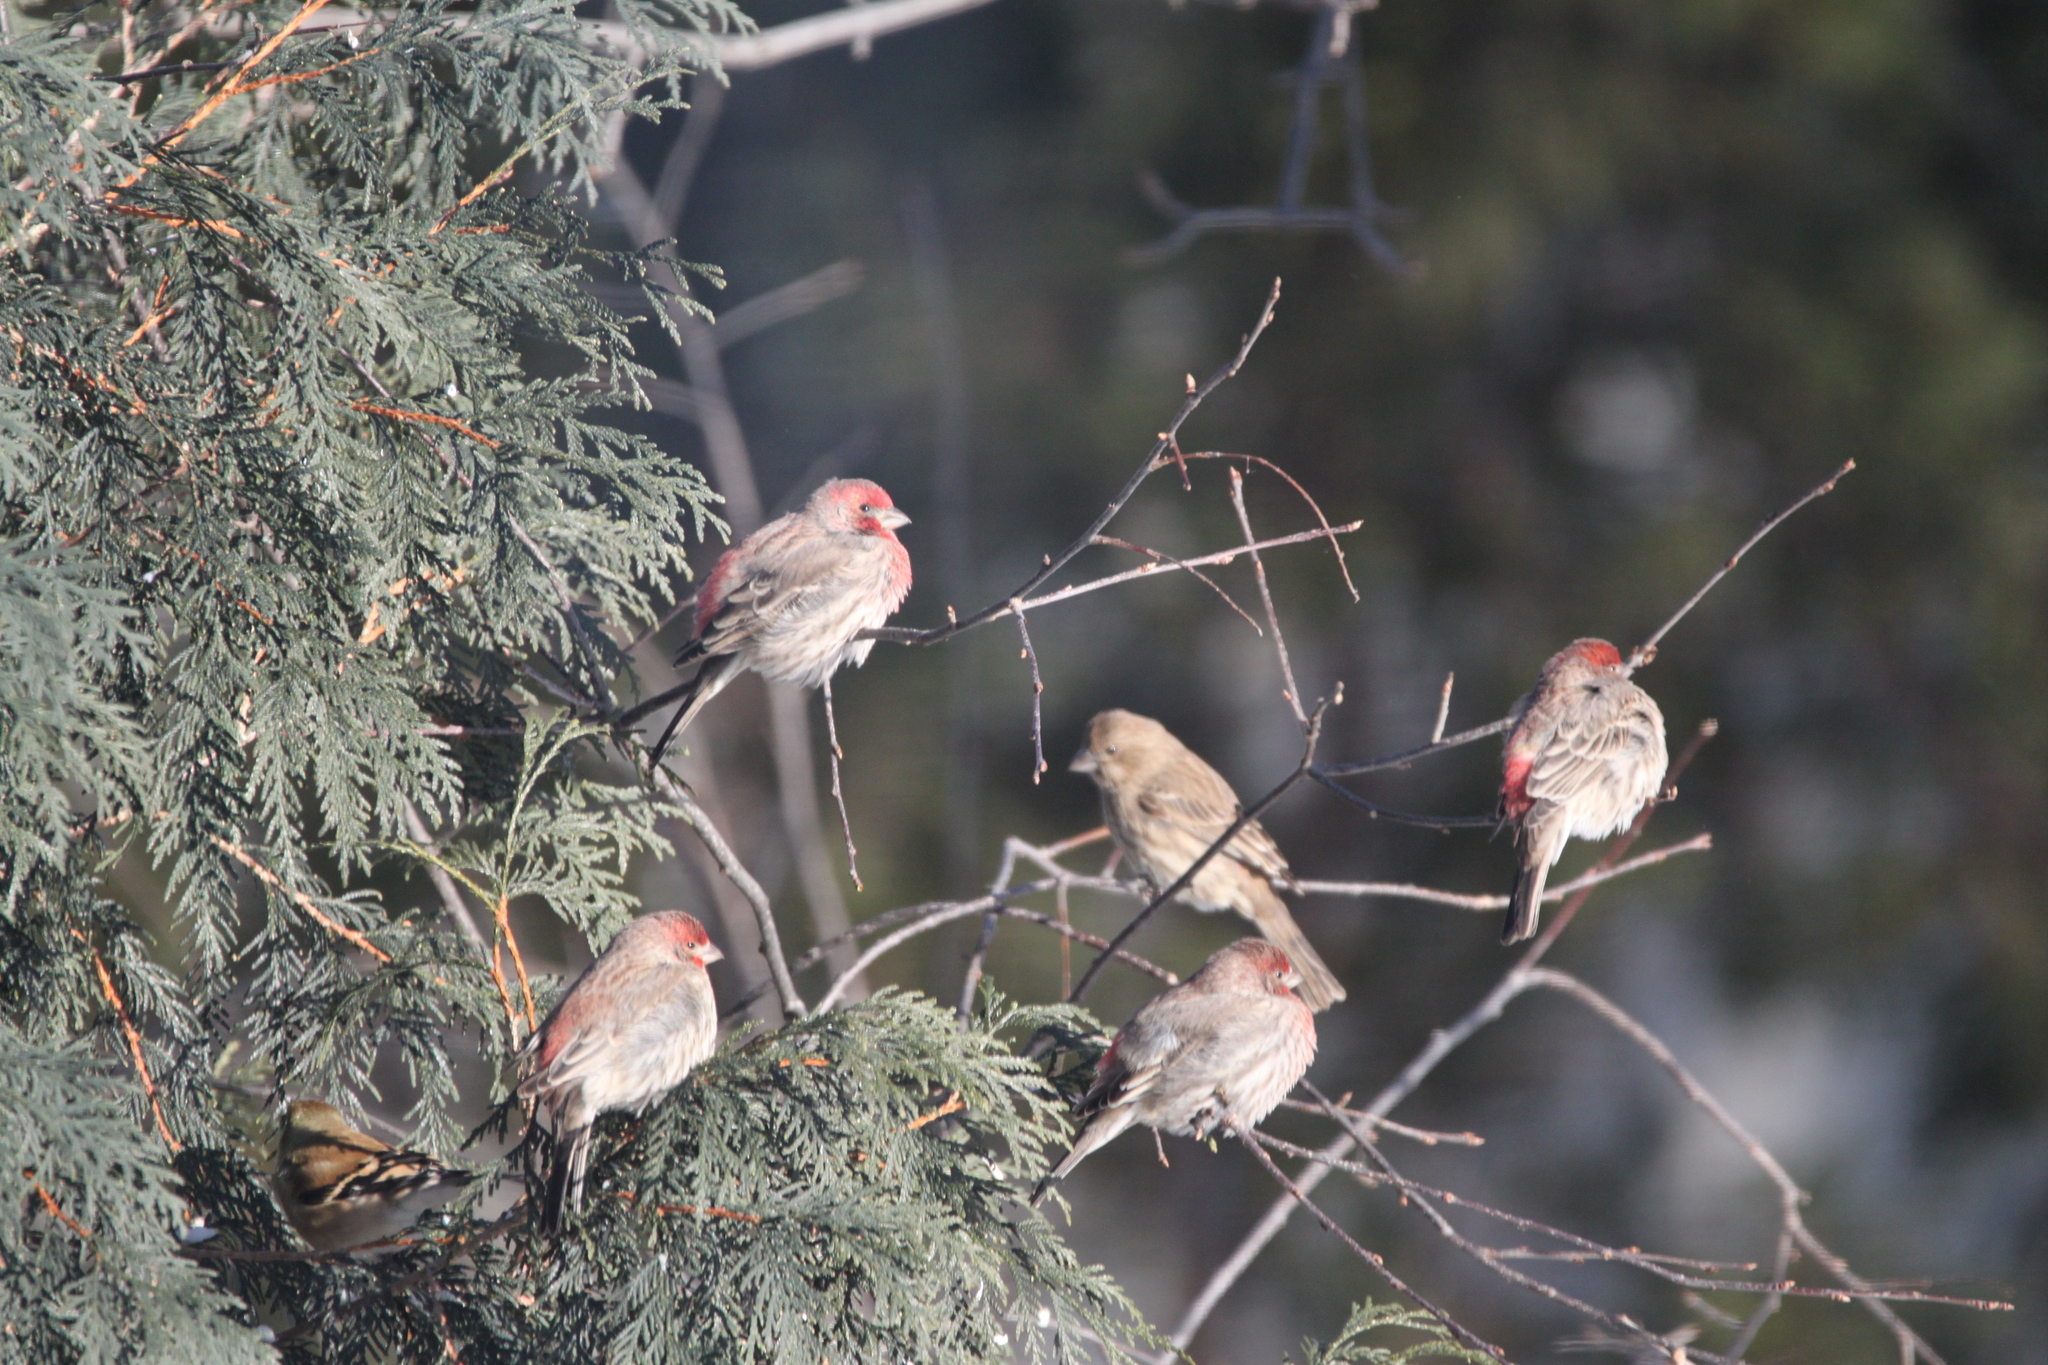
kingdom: Animalia
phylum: Chordata
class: Aves
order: Passeriformes
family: Fringillidae
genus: Haemorhous
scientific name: Haemorhous mexicanus
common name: House finch
